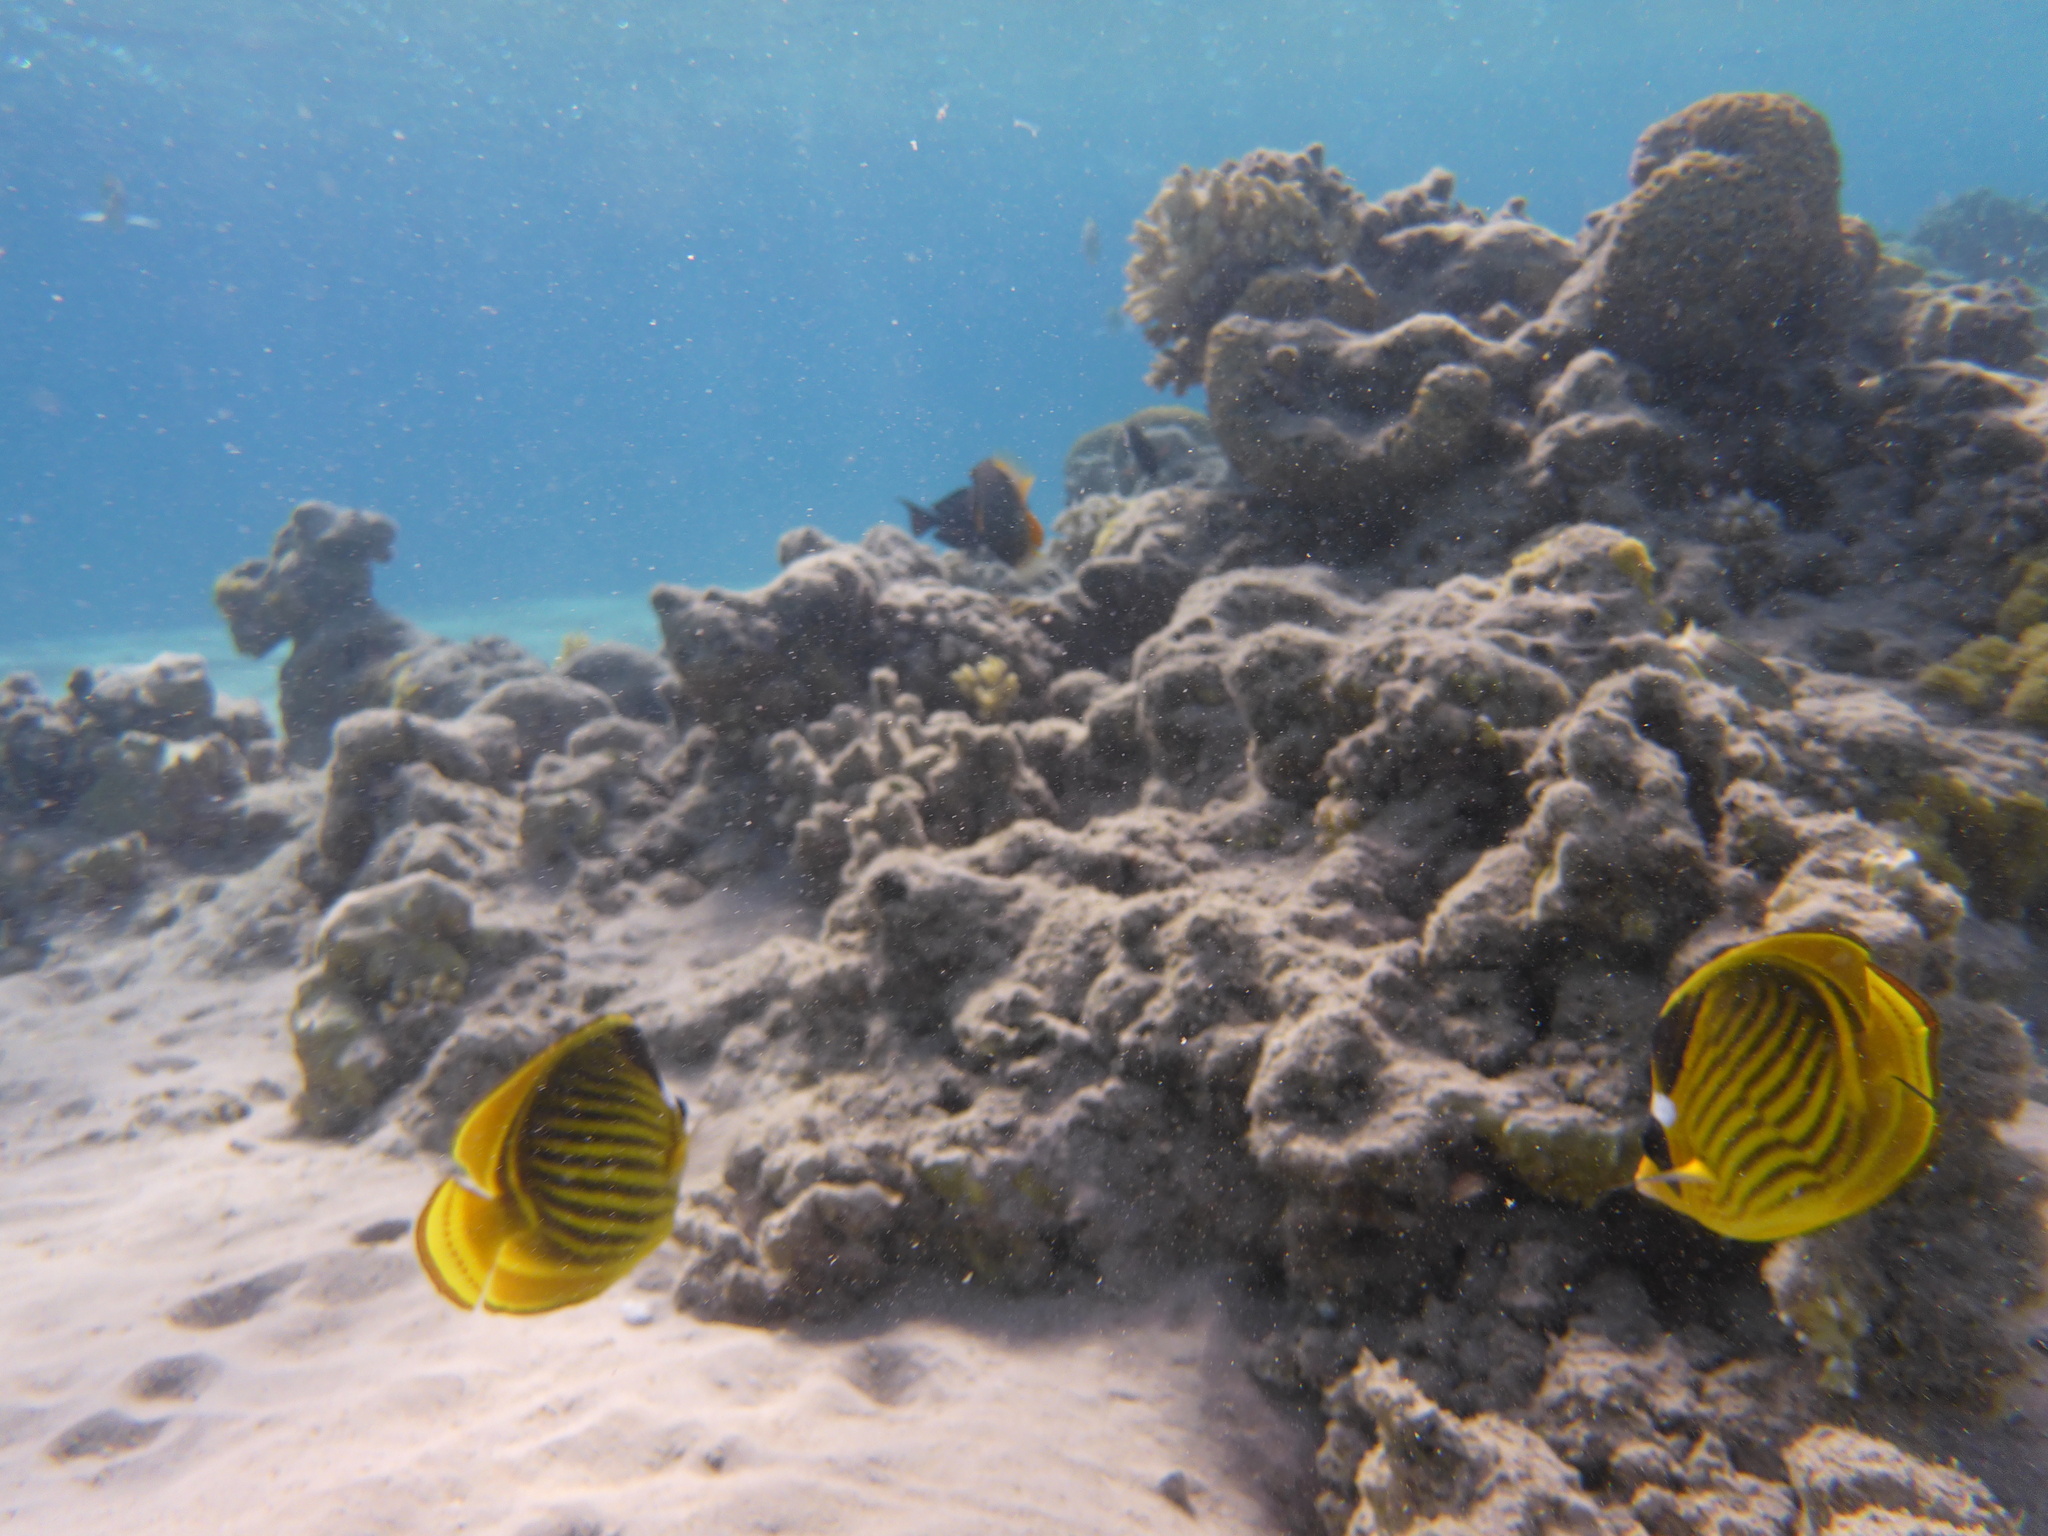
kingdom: Animalia
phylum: Chordata
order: Perciformes
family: Chaetodontidae
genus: Chaetodon
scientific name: Chaetodon fasciatus
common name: Diagonal butterflyfish
